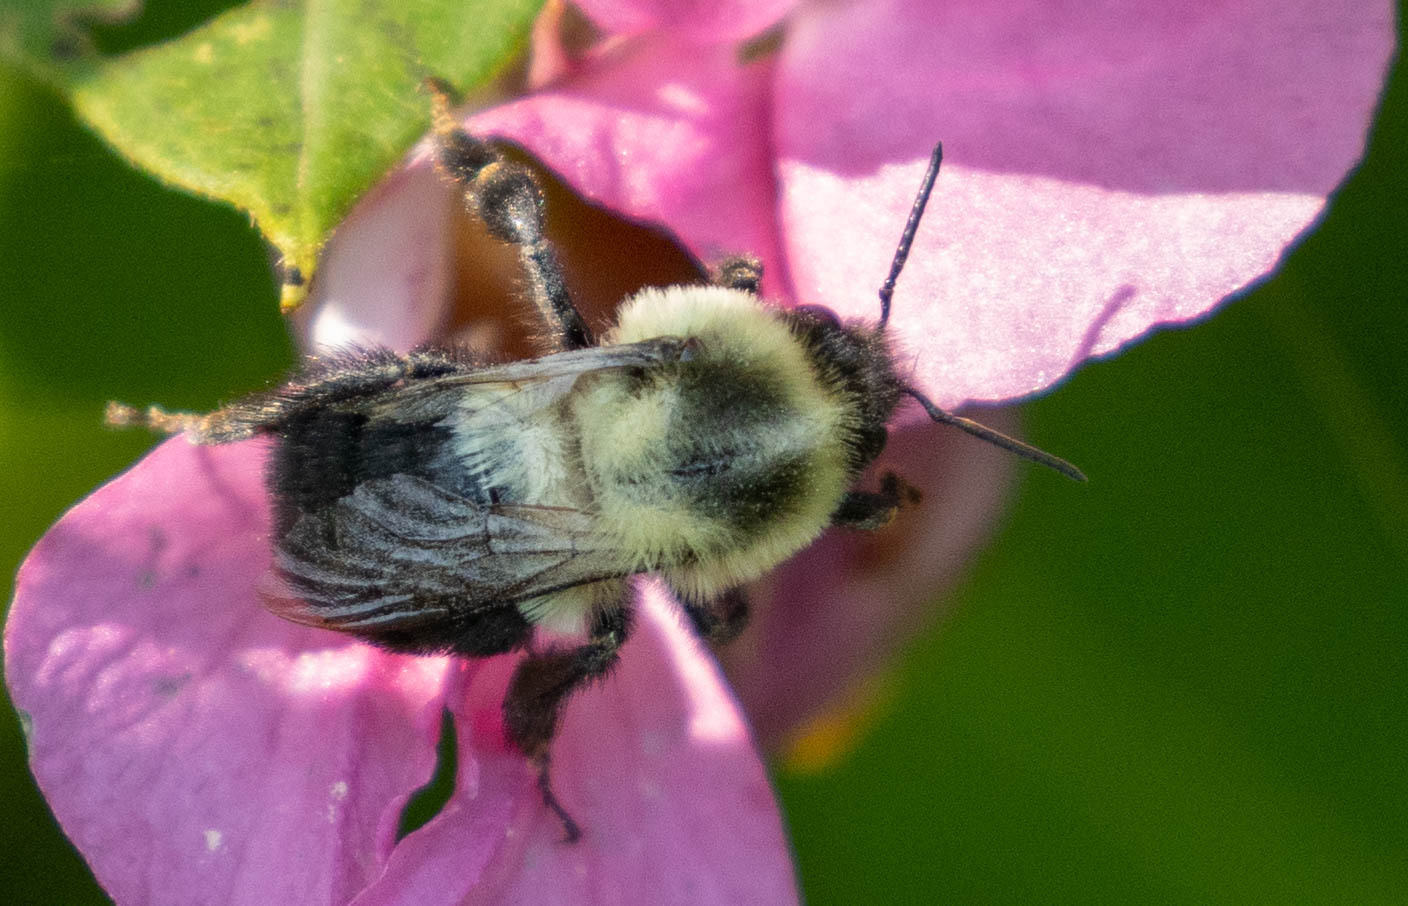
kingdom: Animalia
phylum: Arthropoda
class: Insecta
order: Hymenoptera
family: Apidae
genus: Bombus
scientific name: Bombus impatiens
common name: Common eastern bumble bee
